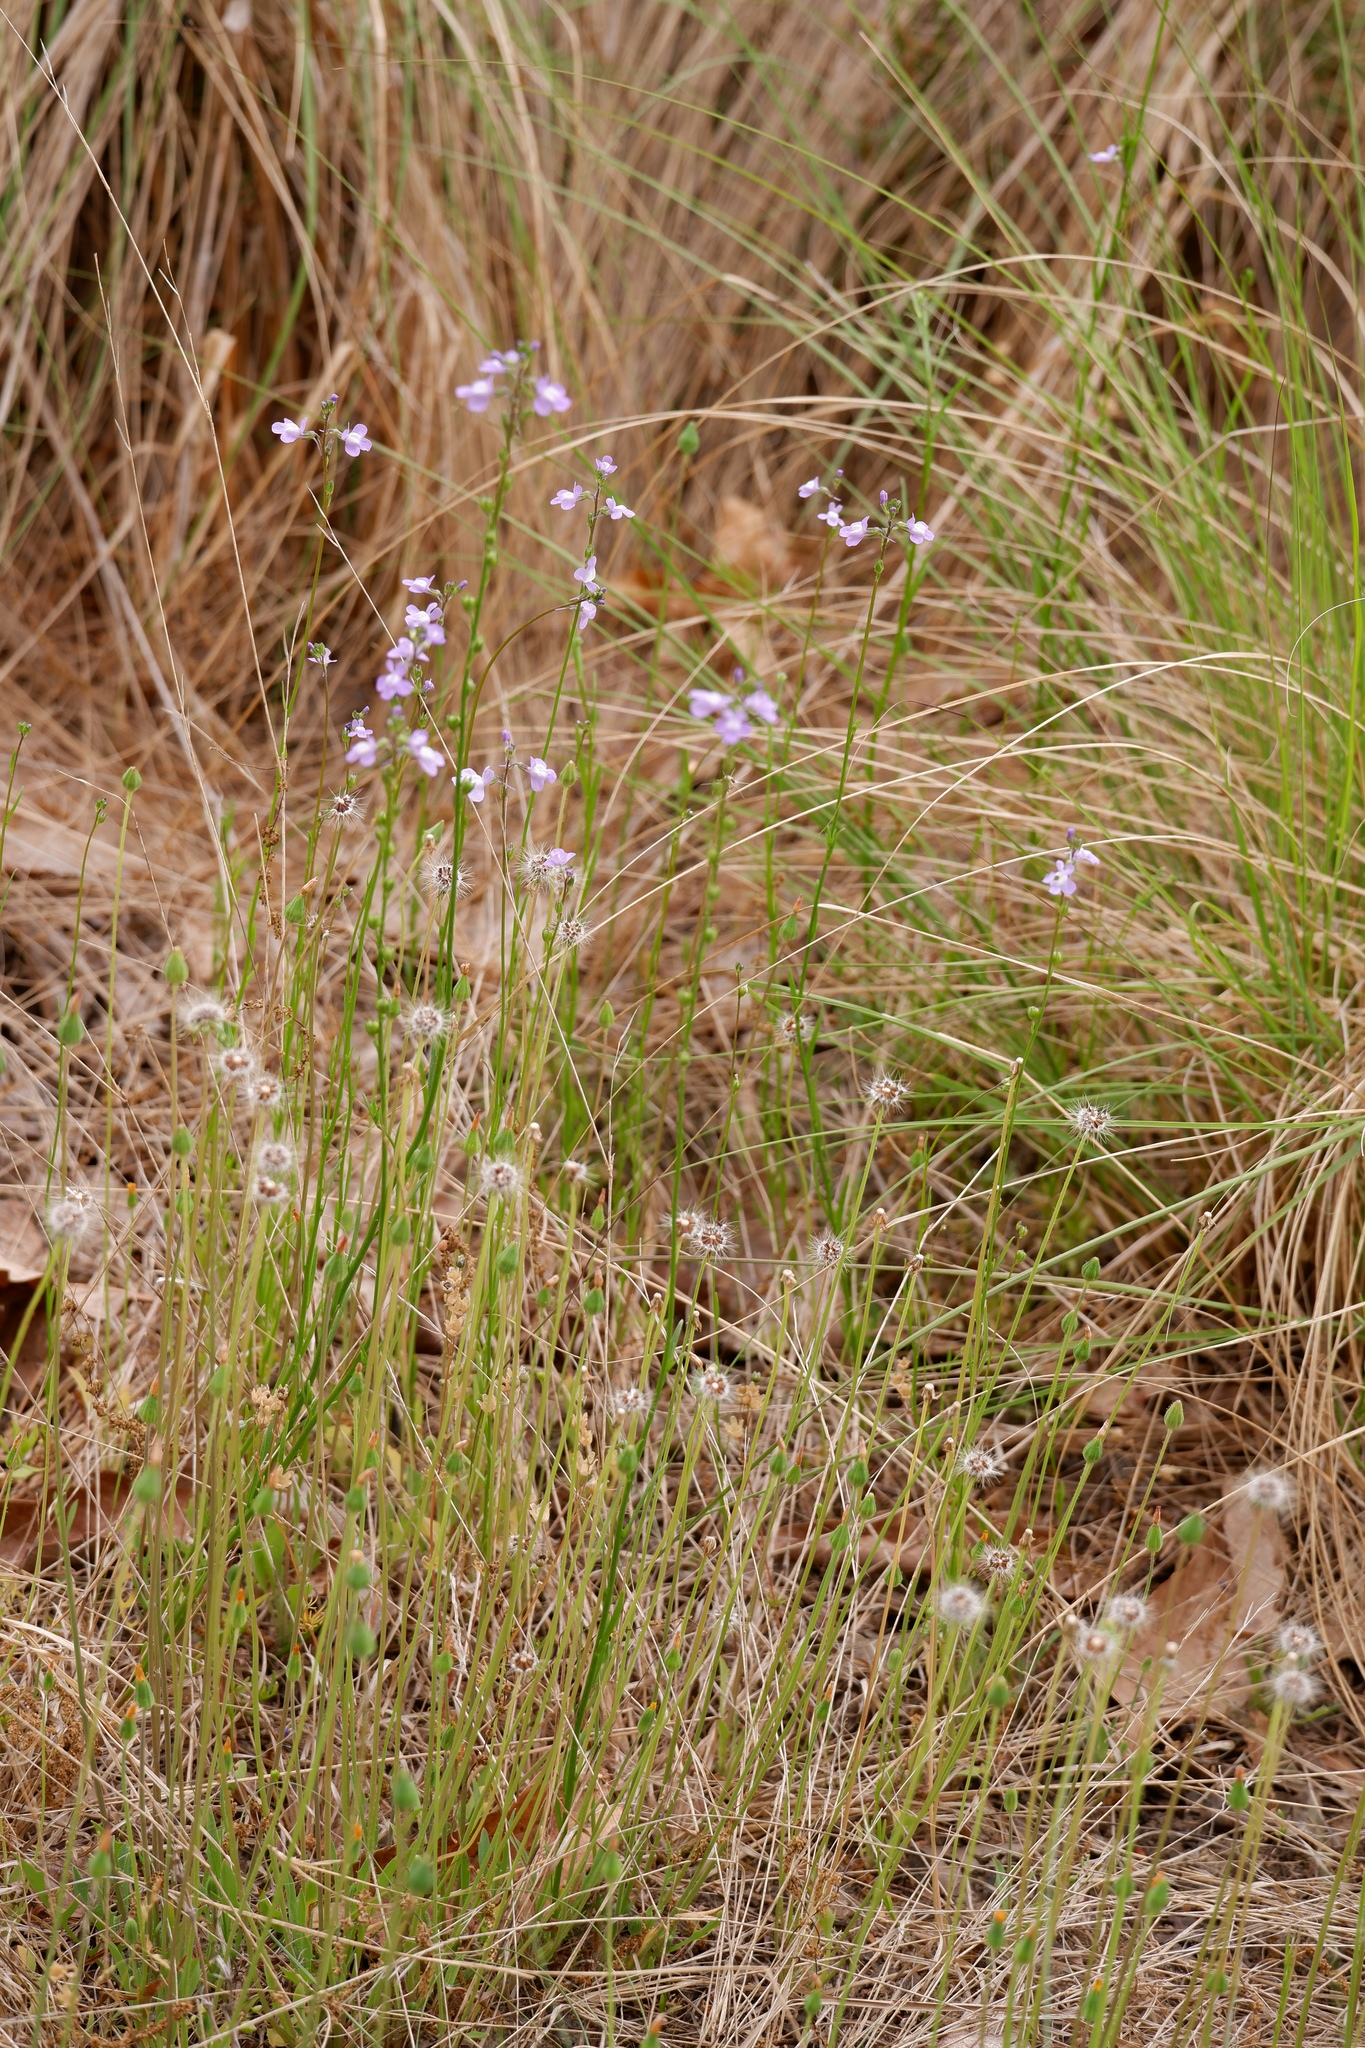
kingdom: Plantae
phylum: Tracheophyta
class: Magnoliopsida
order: Asterales
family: Asteraceae
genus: Krigia
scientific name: Krigia virginica
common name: Virginia dwarf-dandelion
